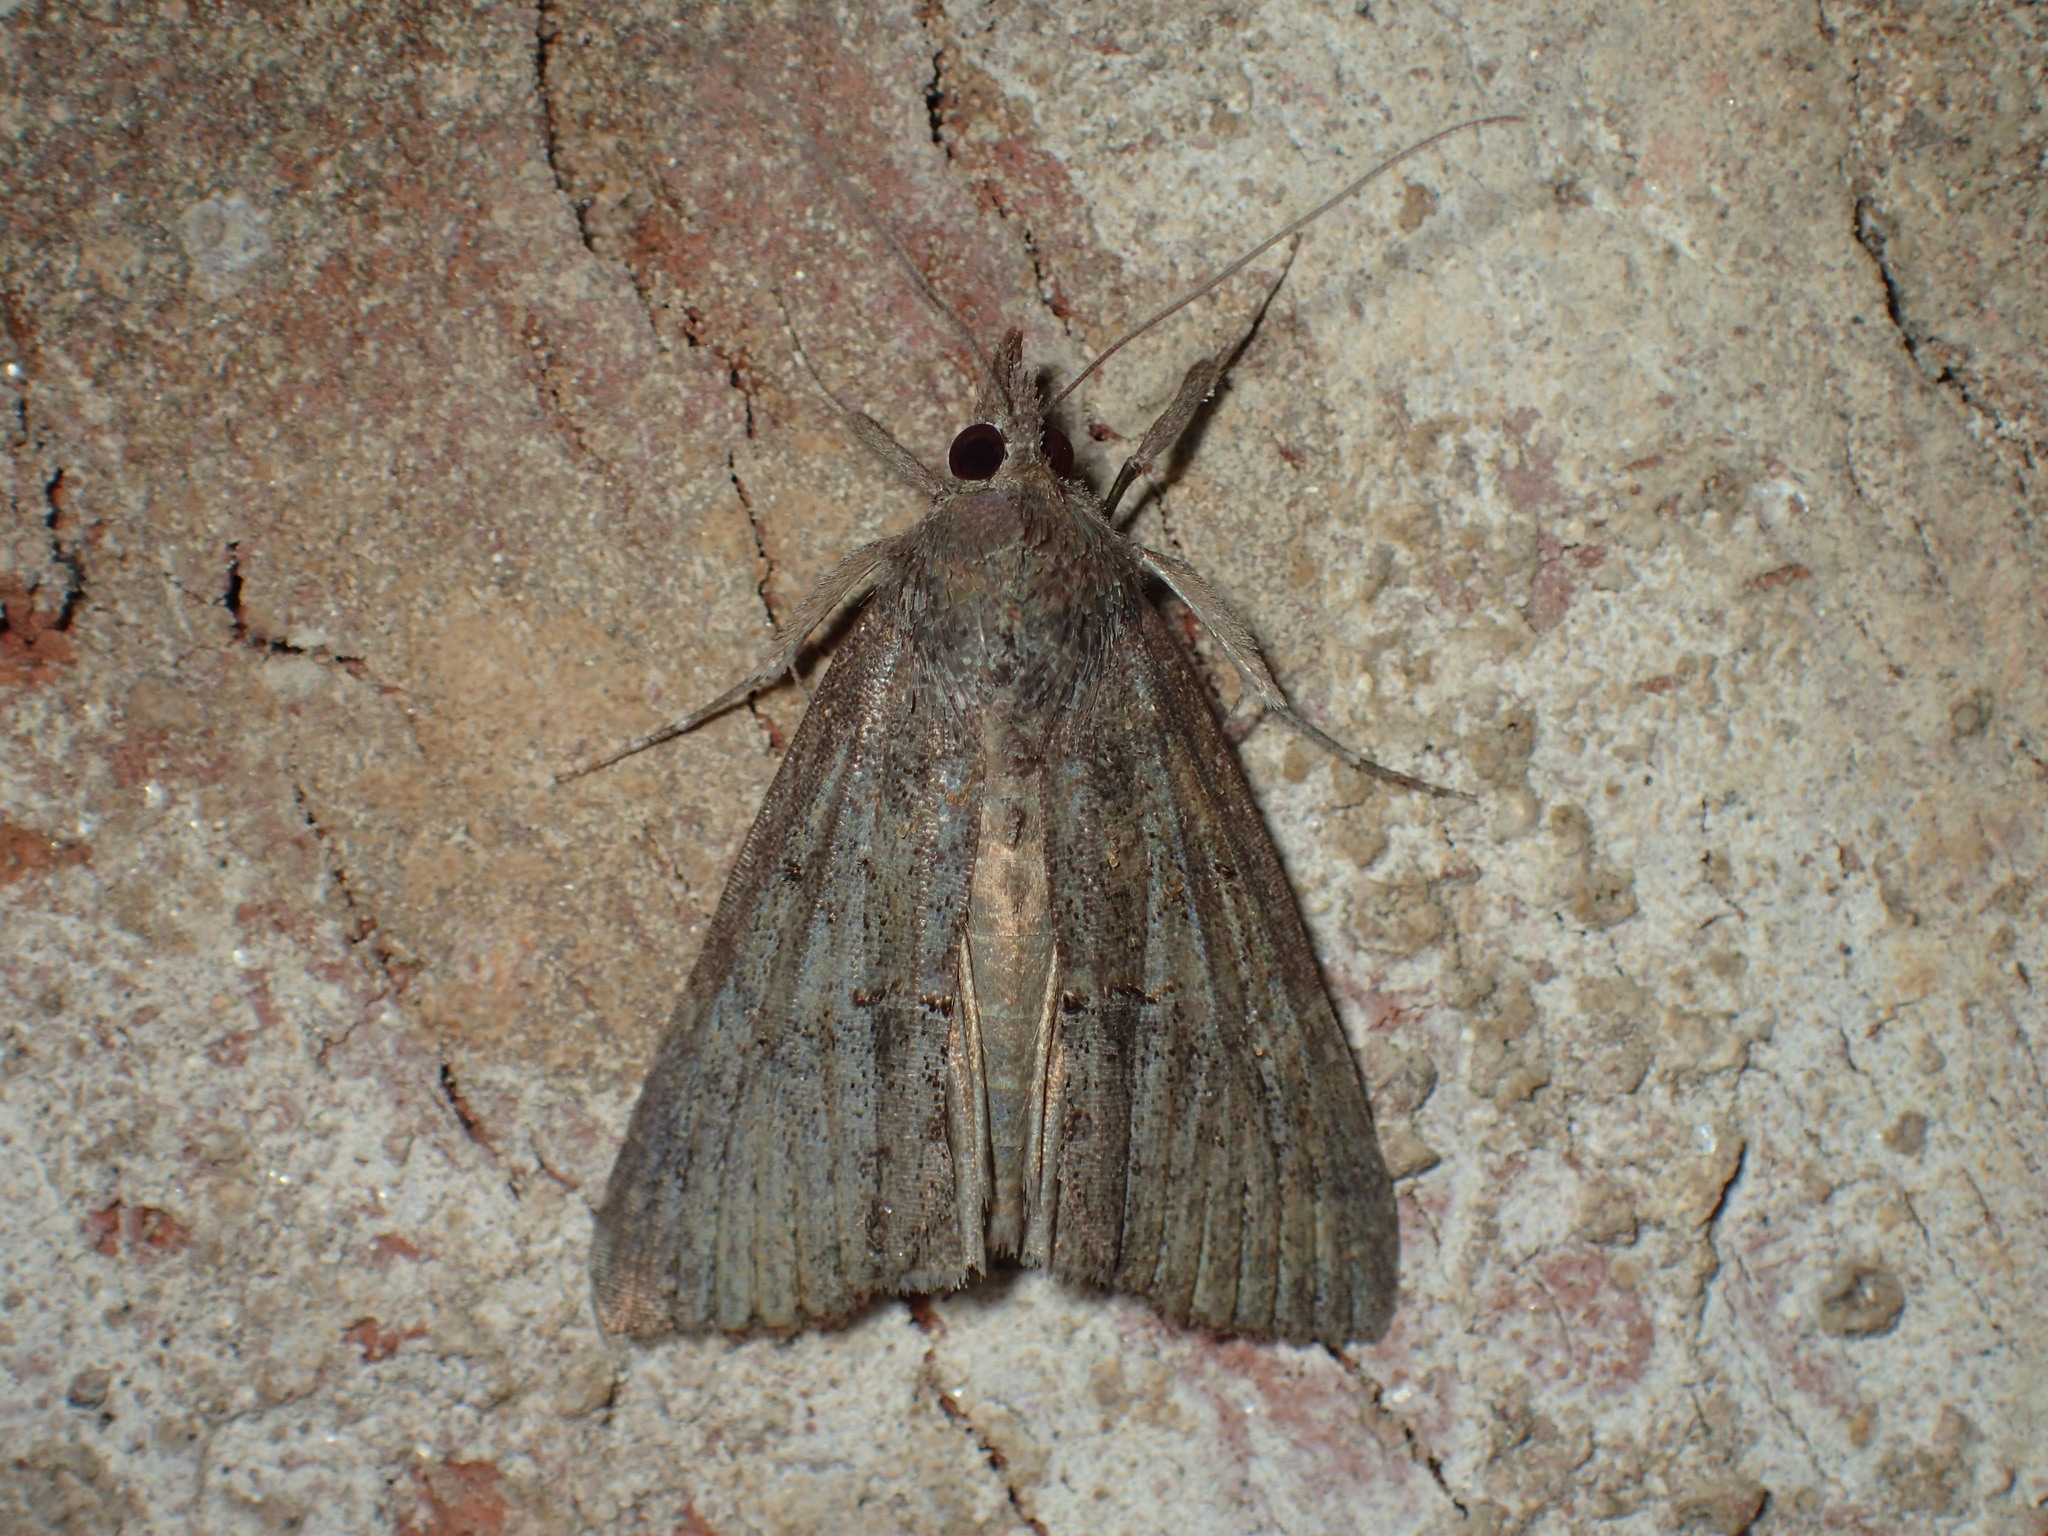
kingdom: Animalia
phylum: Arthropoda
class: Insecta
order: Lepidoptera
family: Erebidae
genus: Hypena
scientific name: Hypena scabra
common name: Green cloverworm
